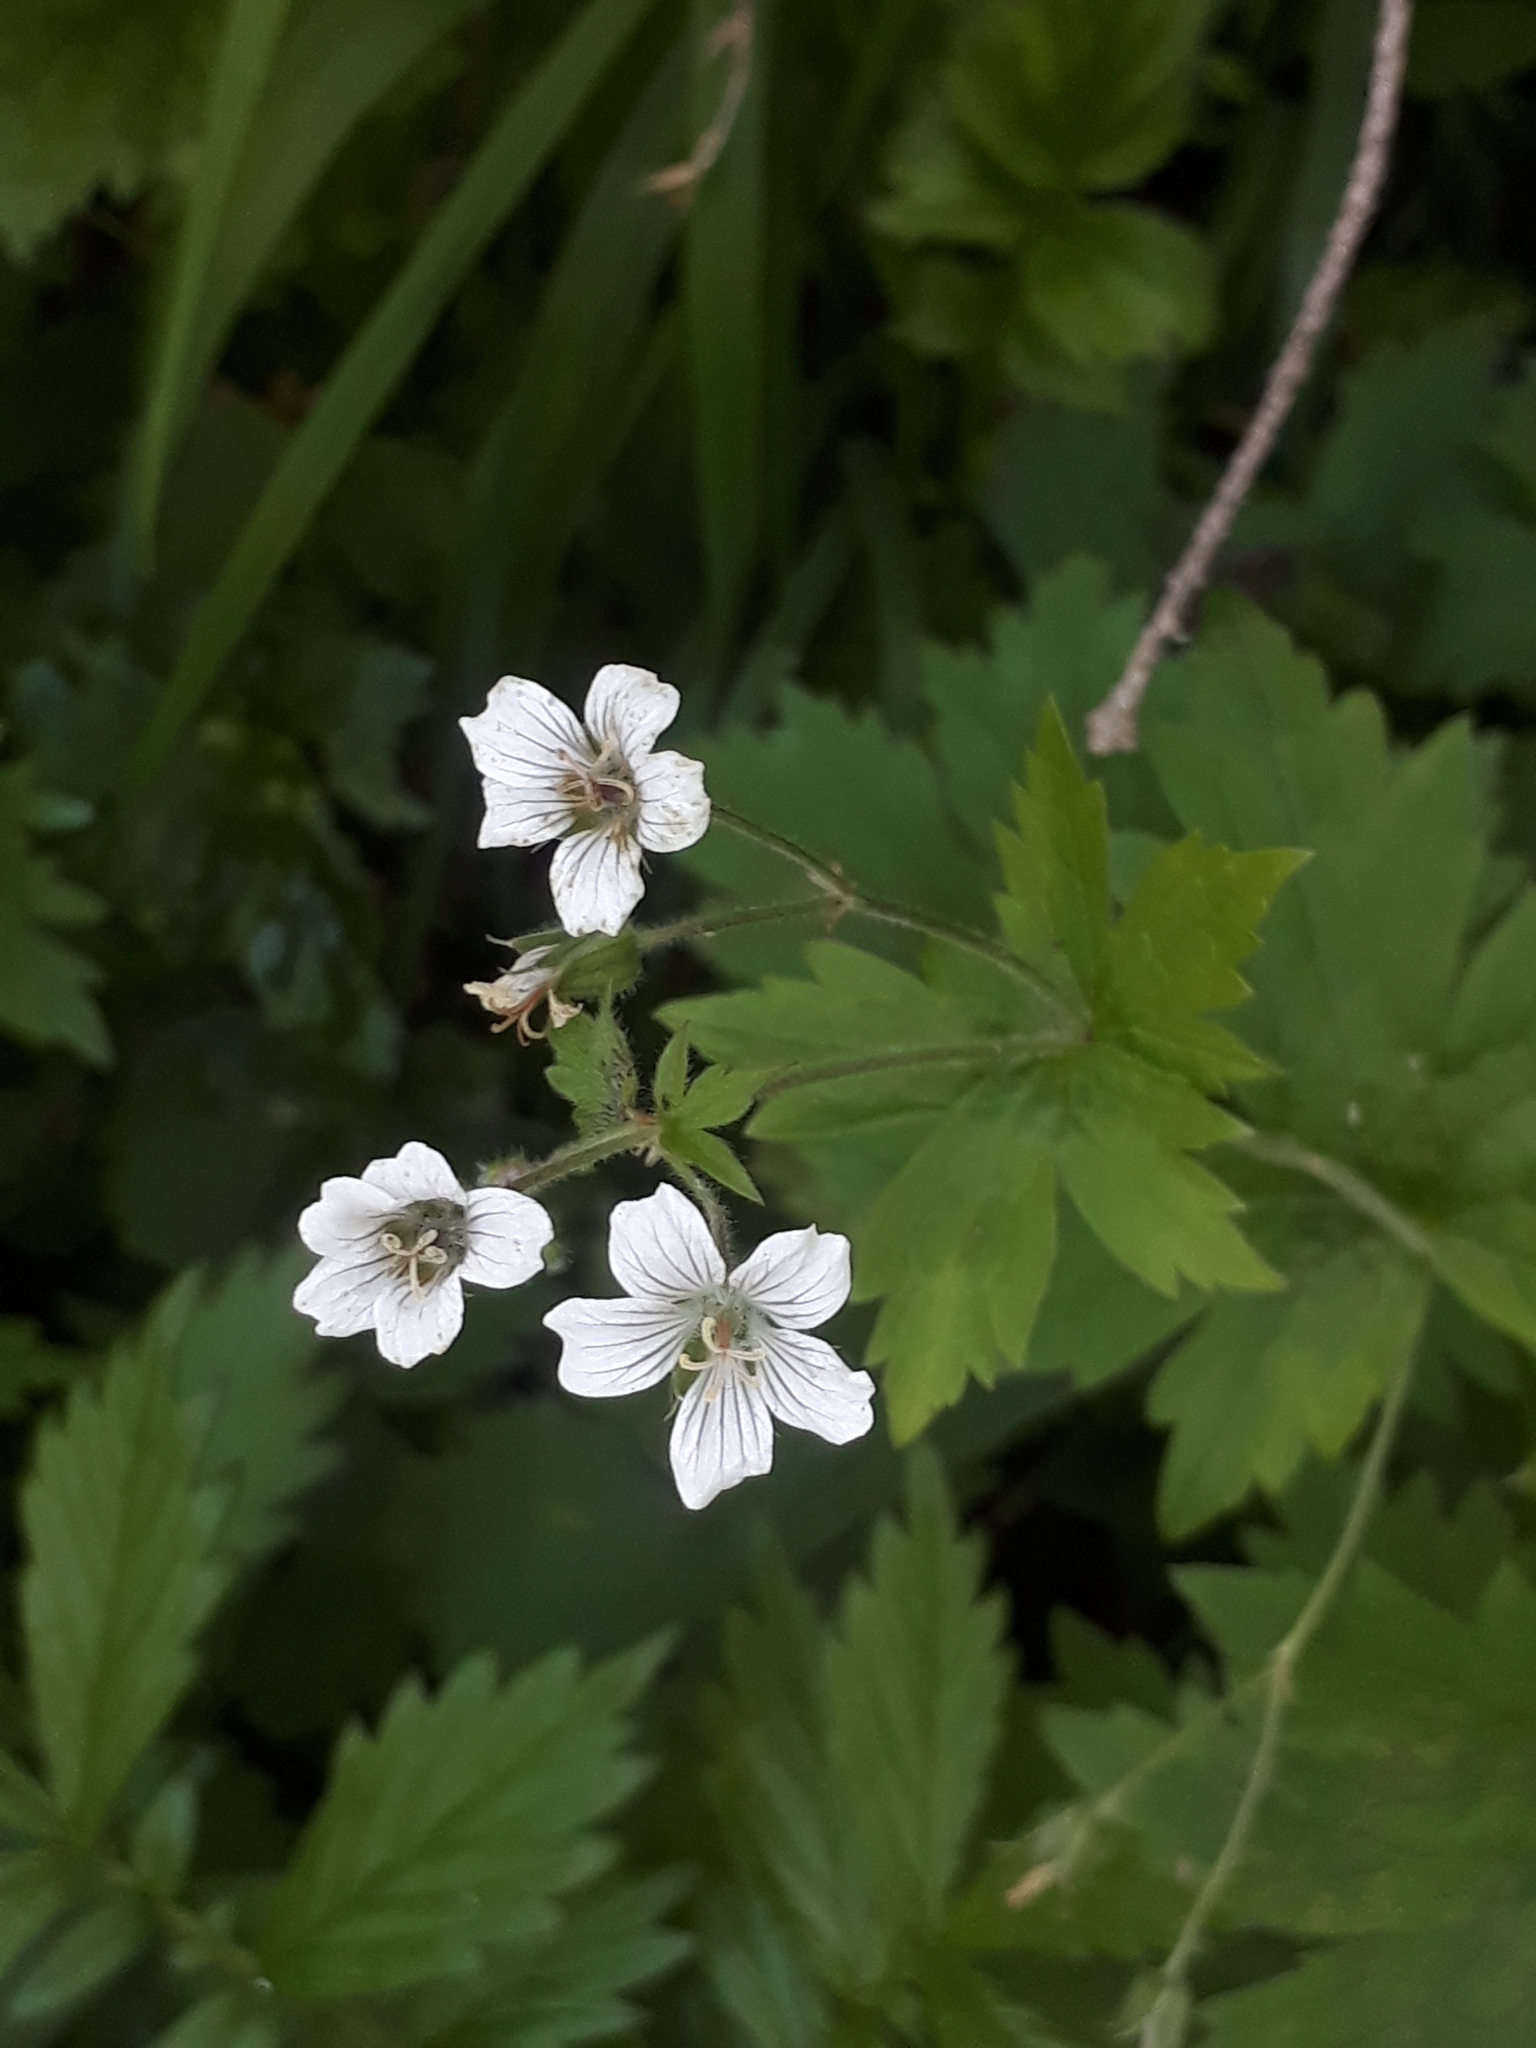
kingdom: Plantae
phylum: Tracheophyta
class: Magnoliopsida
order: Geraniales
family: Geraniaceae
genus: Geranium
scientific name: Geranium sylvaticum
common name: Wood crane's-bill
